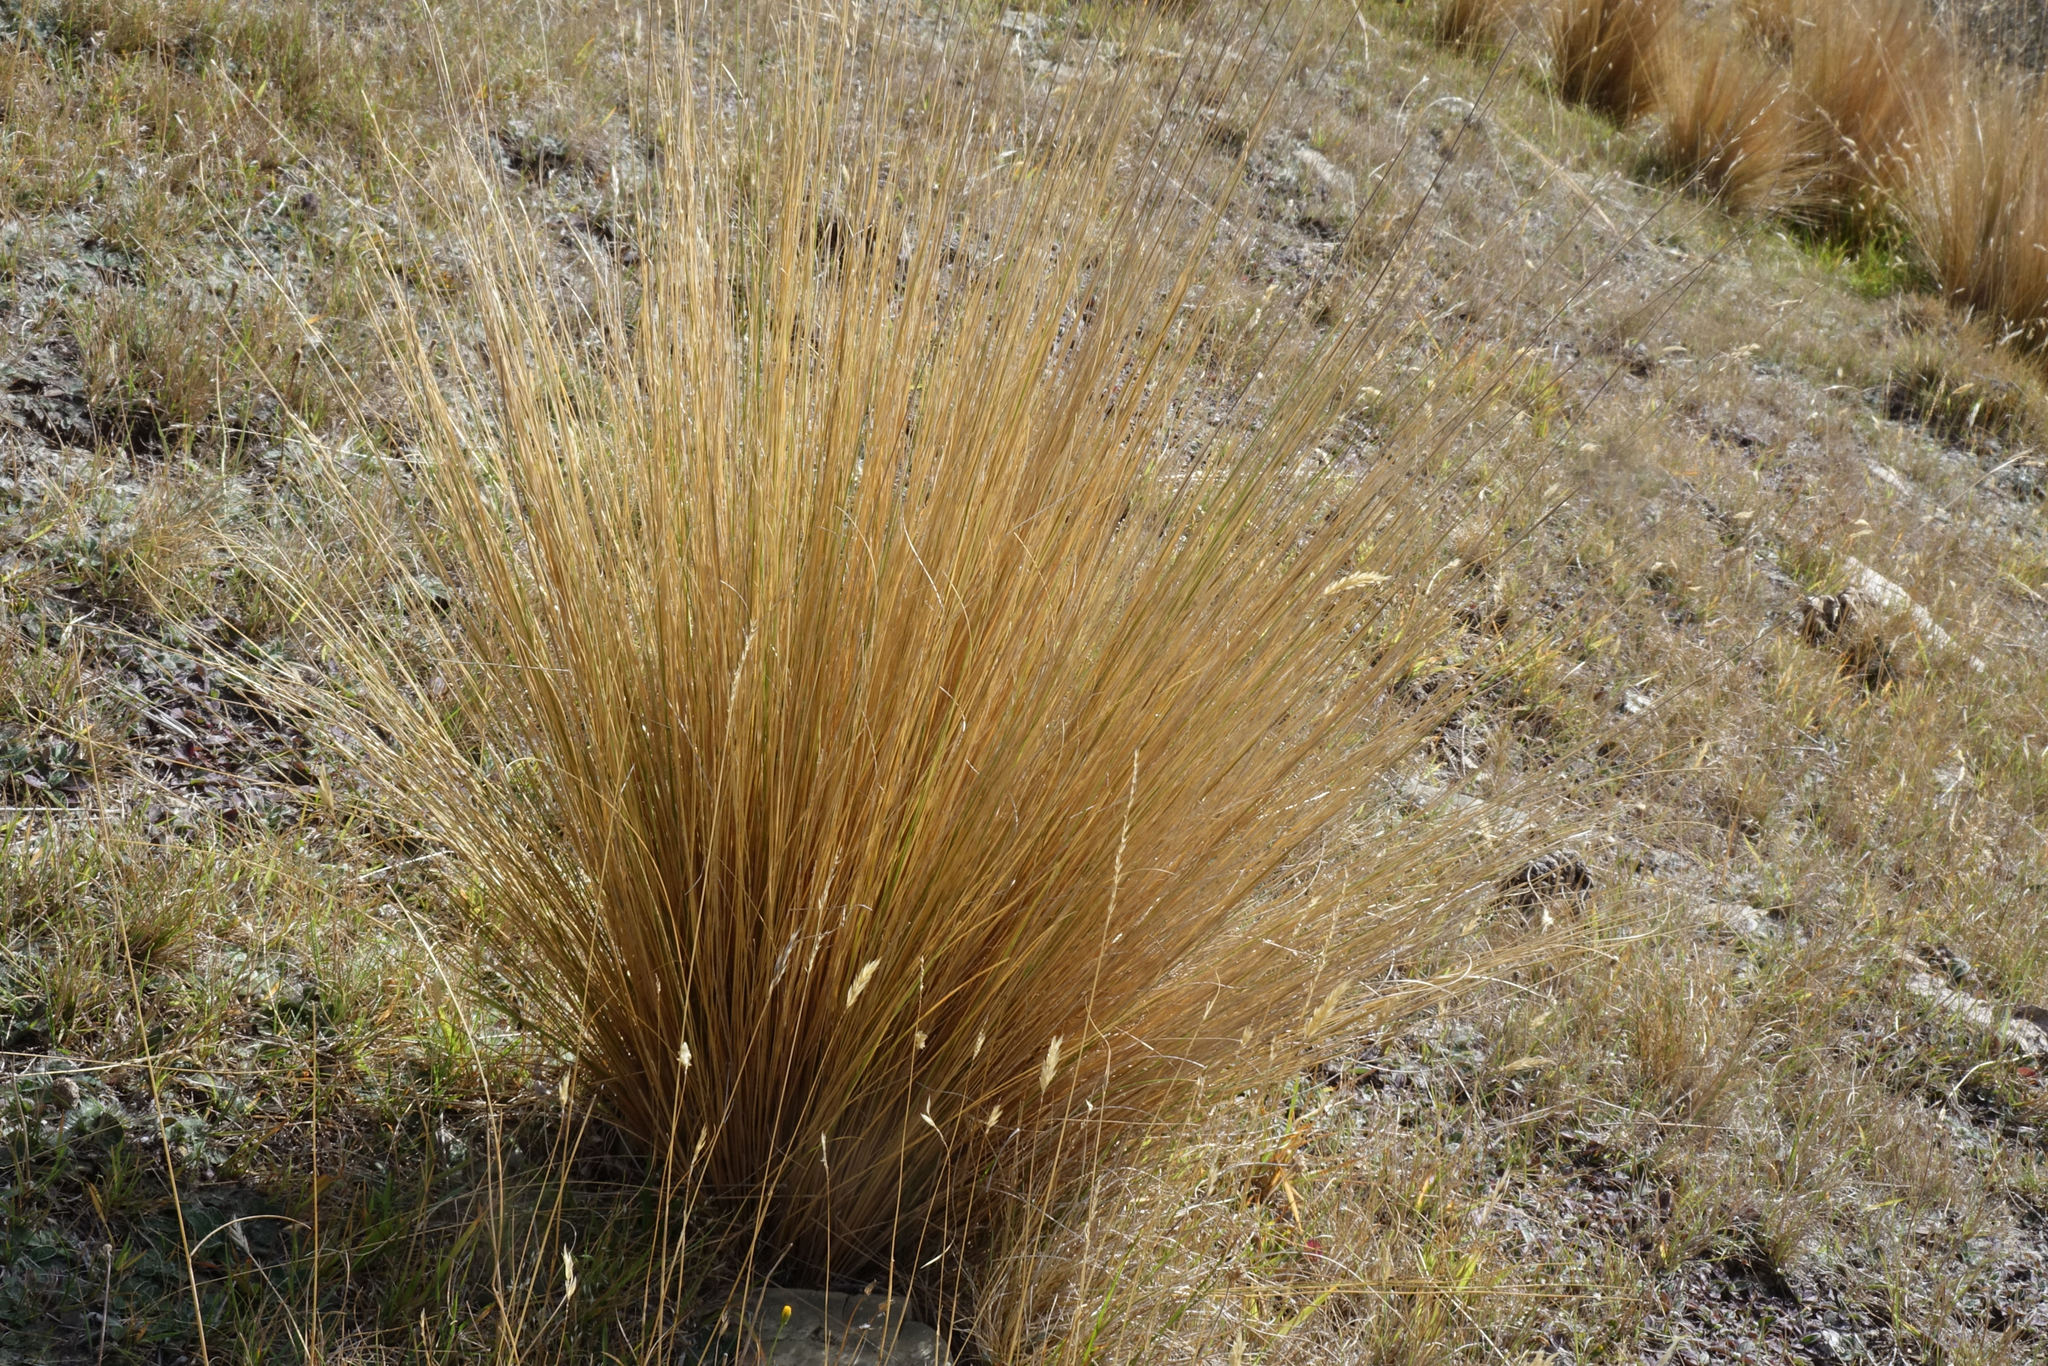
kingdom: Plantae
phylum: Tracheophyta
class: Liliopsida
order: Poales
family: Poaceae
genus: Festuca
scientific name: Festuca novae-zelandiae
